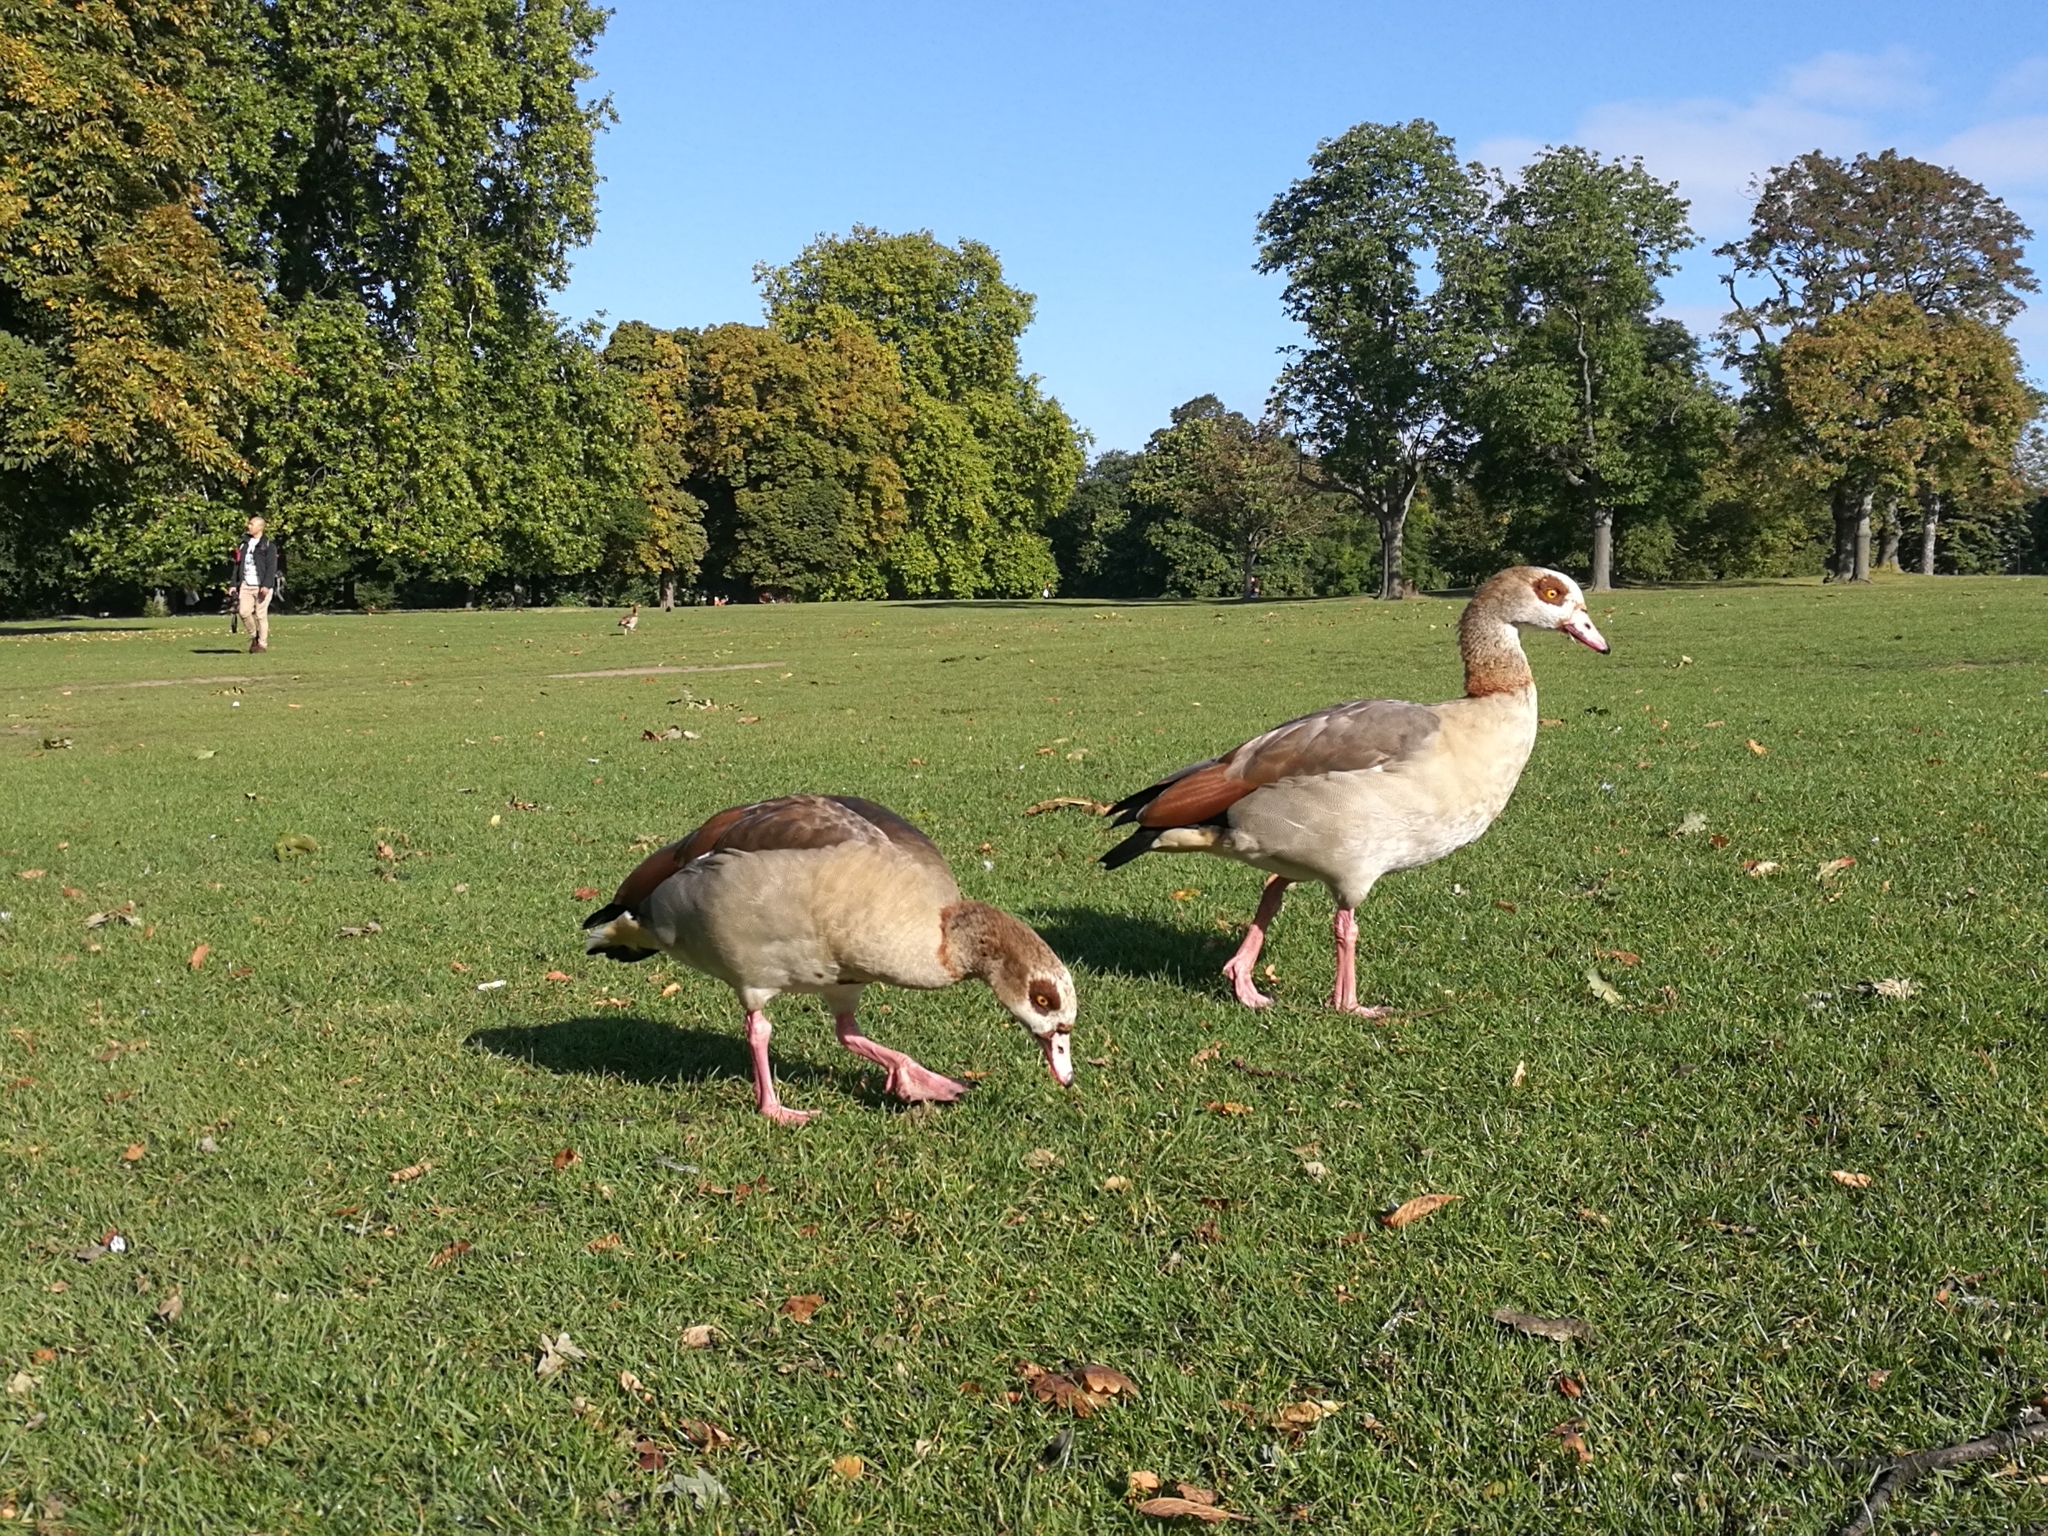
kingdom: Animalia
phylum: Chordata
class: Aves
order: Anseriformes
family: Anatidae
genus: Alopochen
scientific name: Alopochen aegyptiaca
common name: Egyptian goose
